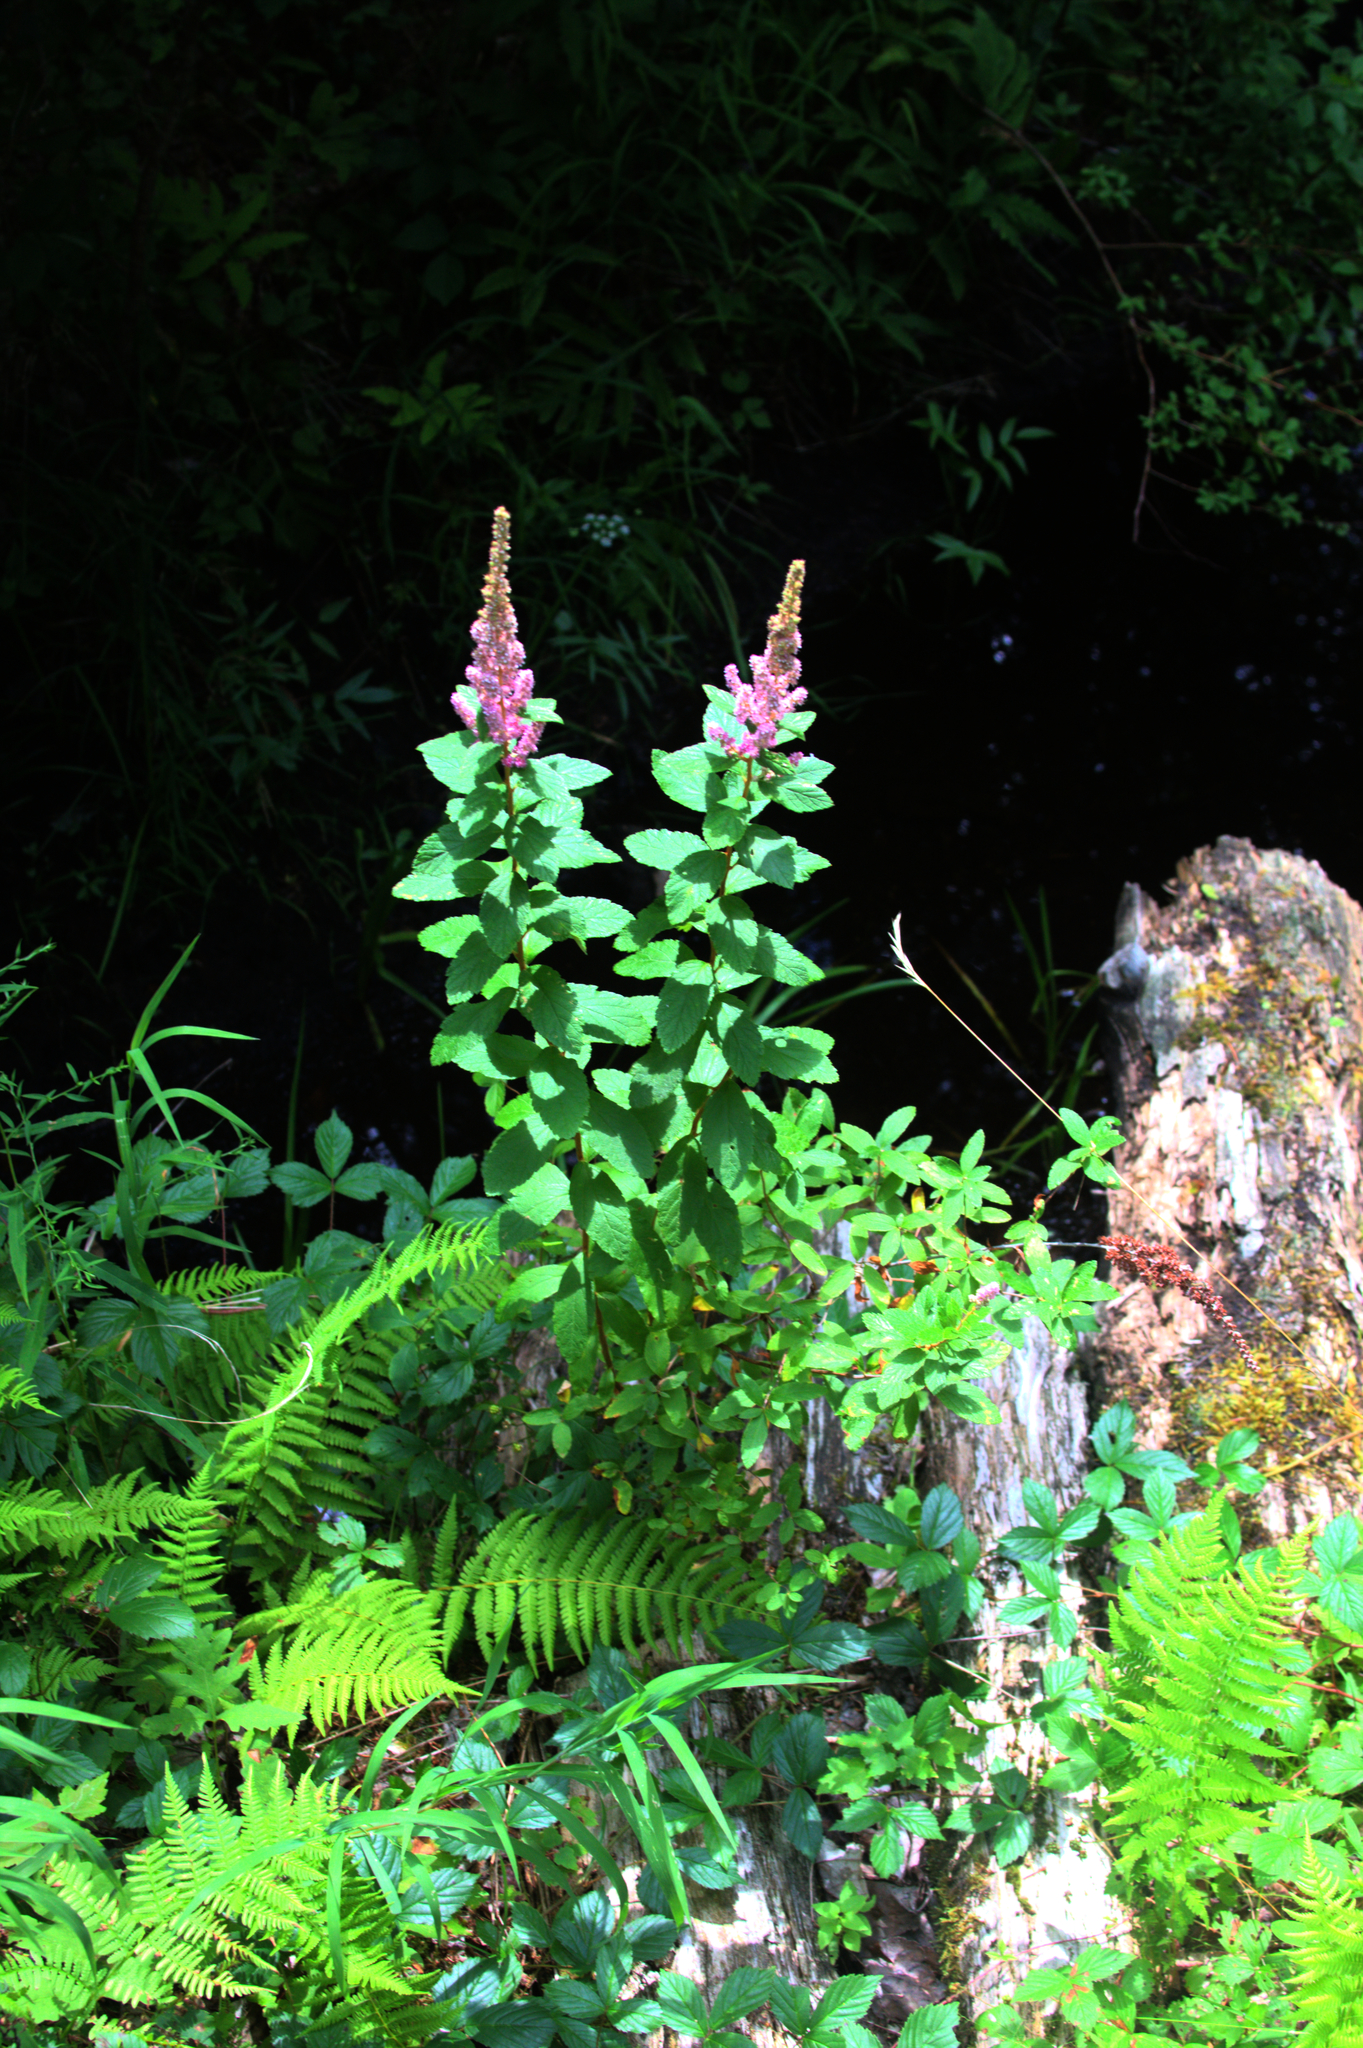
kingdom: Plantae
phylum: Tracheophyta
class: Magnoliopsida
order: Rosales
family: Rosaceae
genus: Spiraea
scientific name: Spiraea tomentosa
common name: Hardhack
